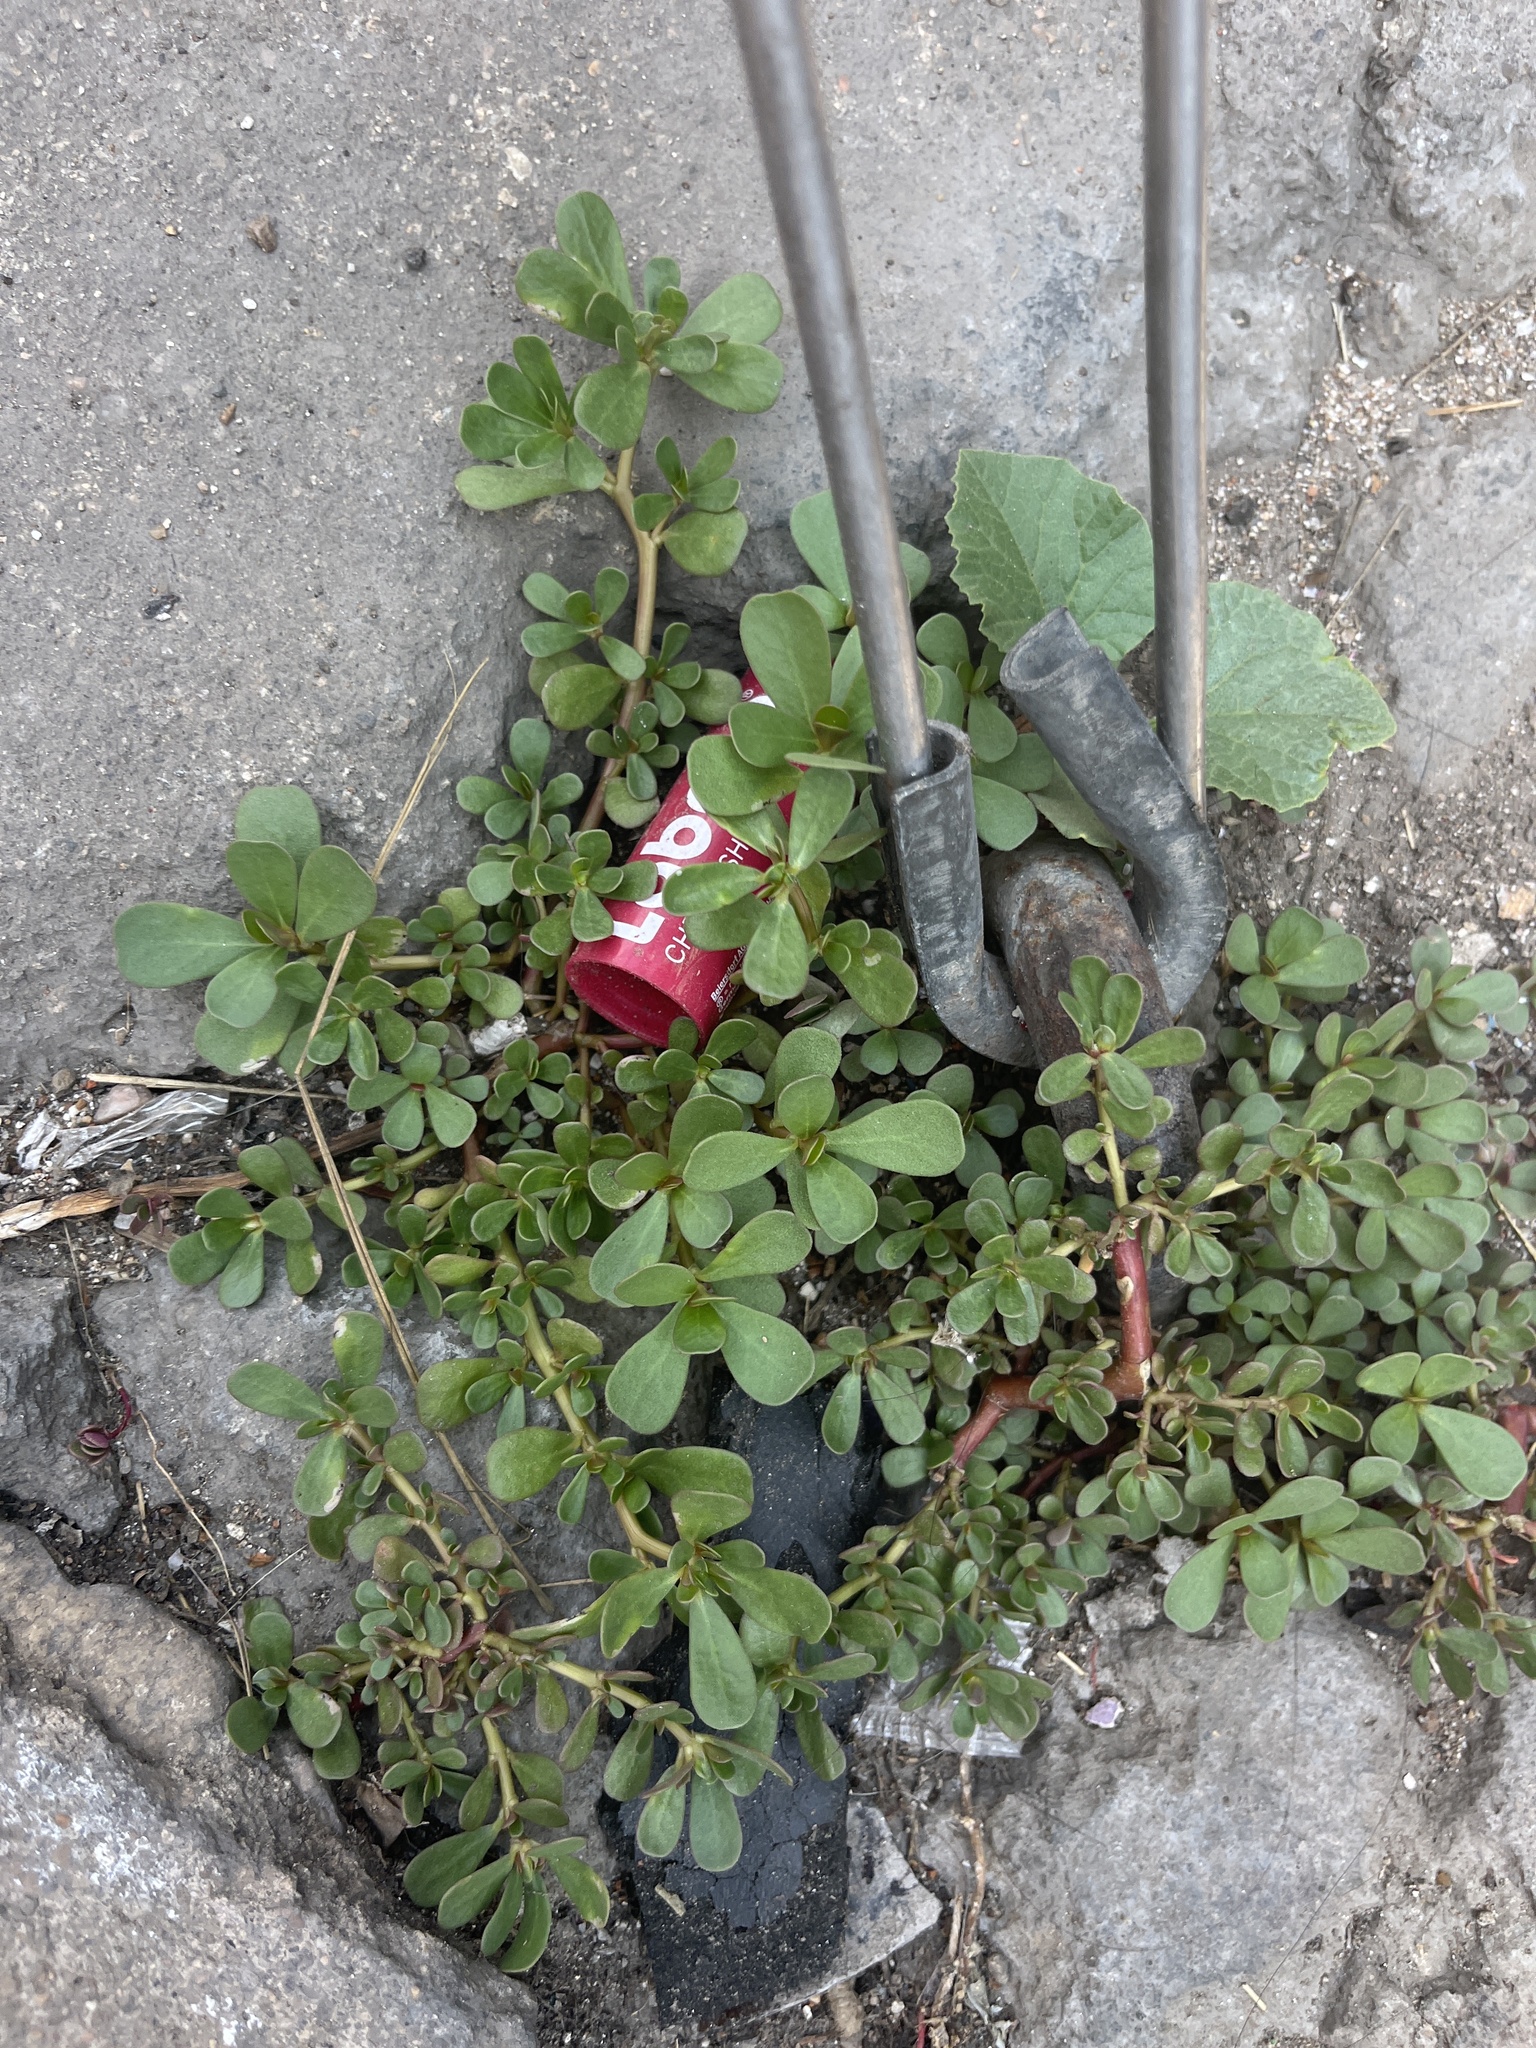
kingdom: Plantae
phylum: Tracheophyta
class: Magnoliopsida
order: Caryophyllales
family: Portulacaceae
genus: Portulaca
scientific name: Portulaca oleracea
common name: Common purslane
